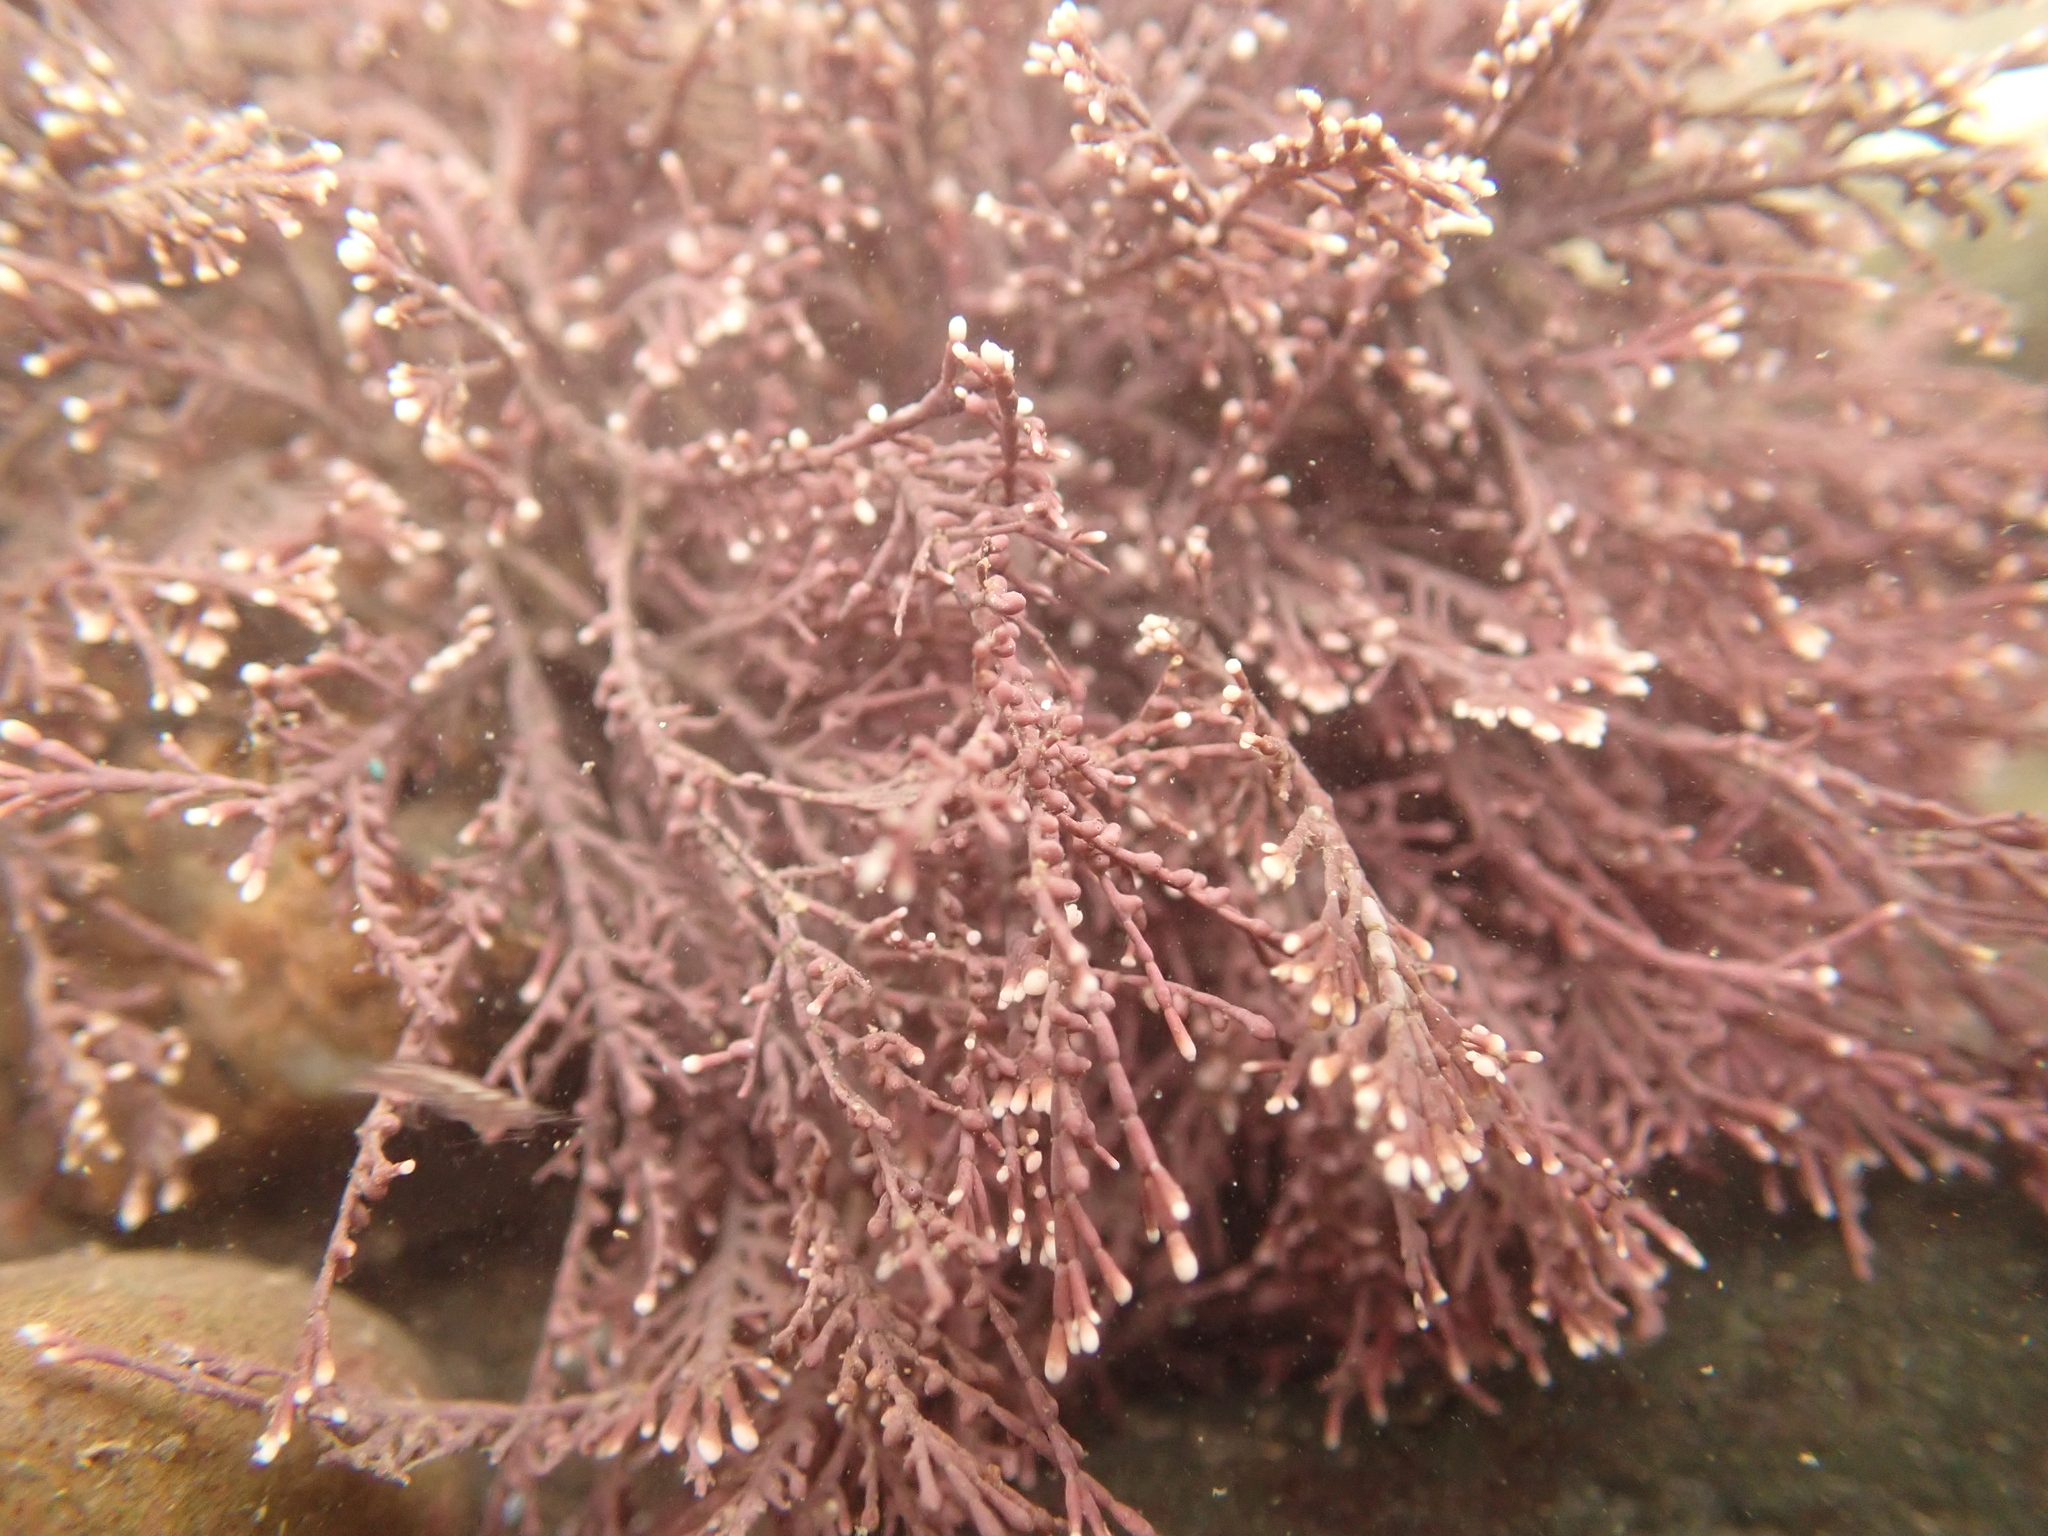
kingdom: Plantae
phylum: Rhodophyta
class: Florideophyceae
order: Corallinales
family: Corallinaceae
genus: Corallina
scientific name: Corallina officinalis
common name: Coral weed
